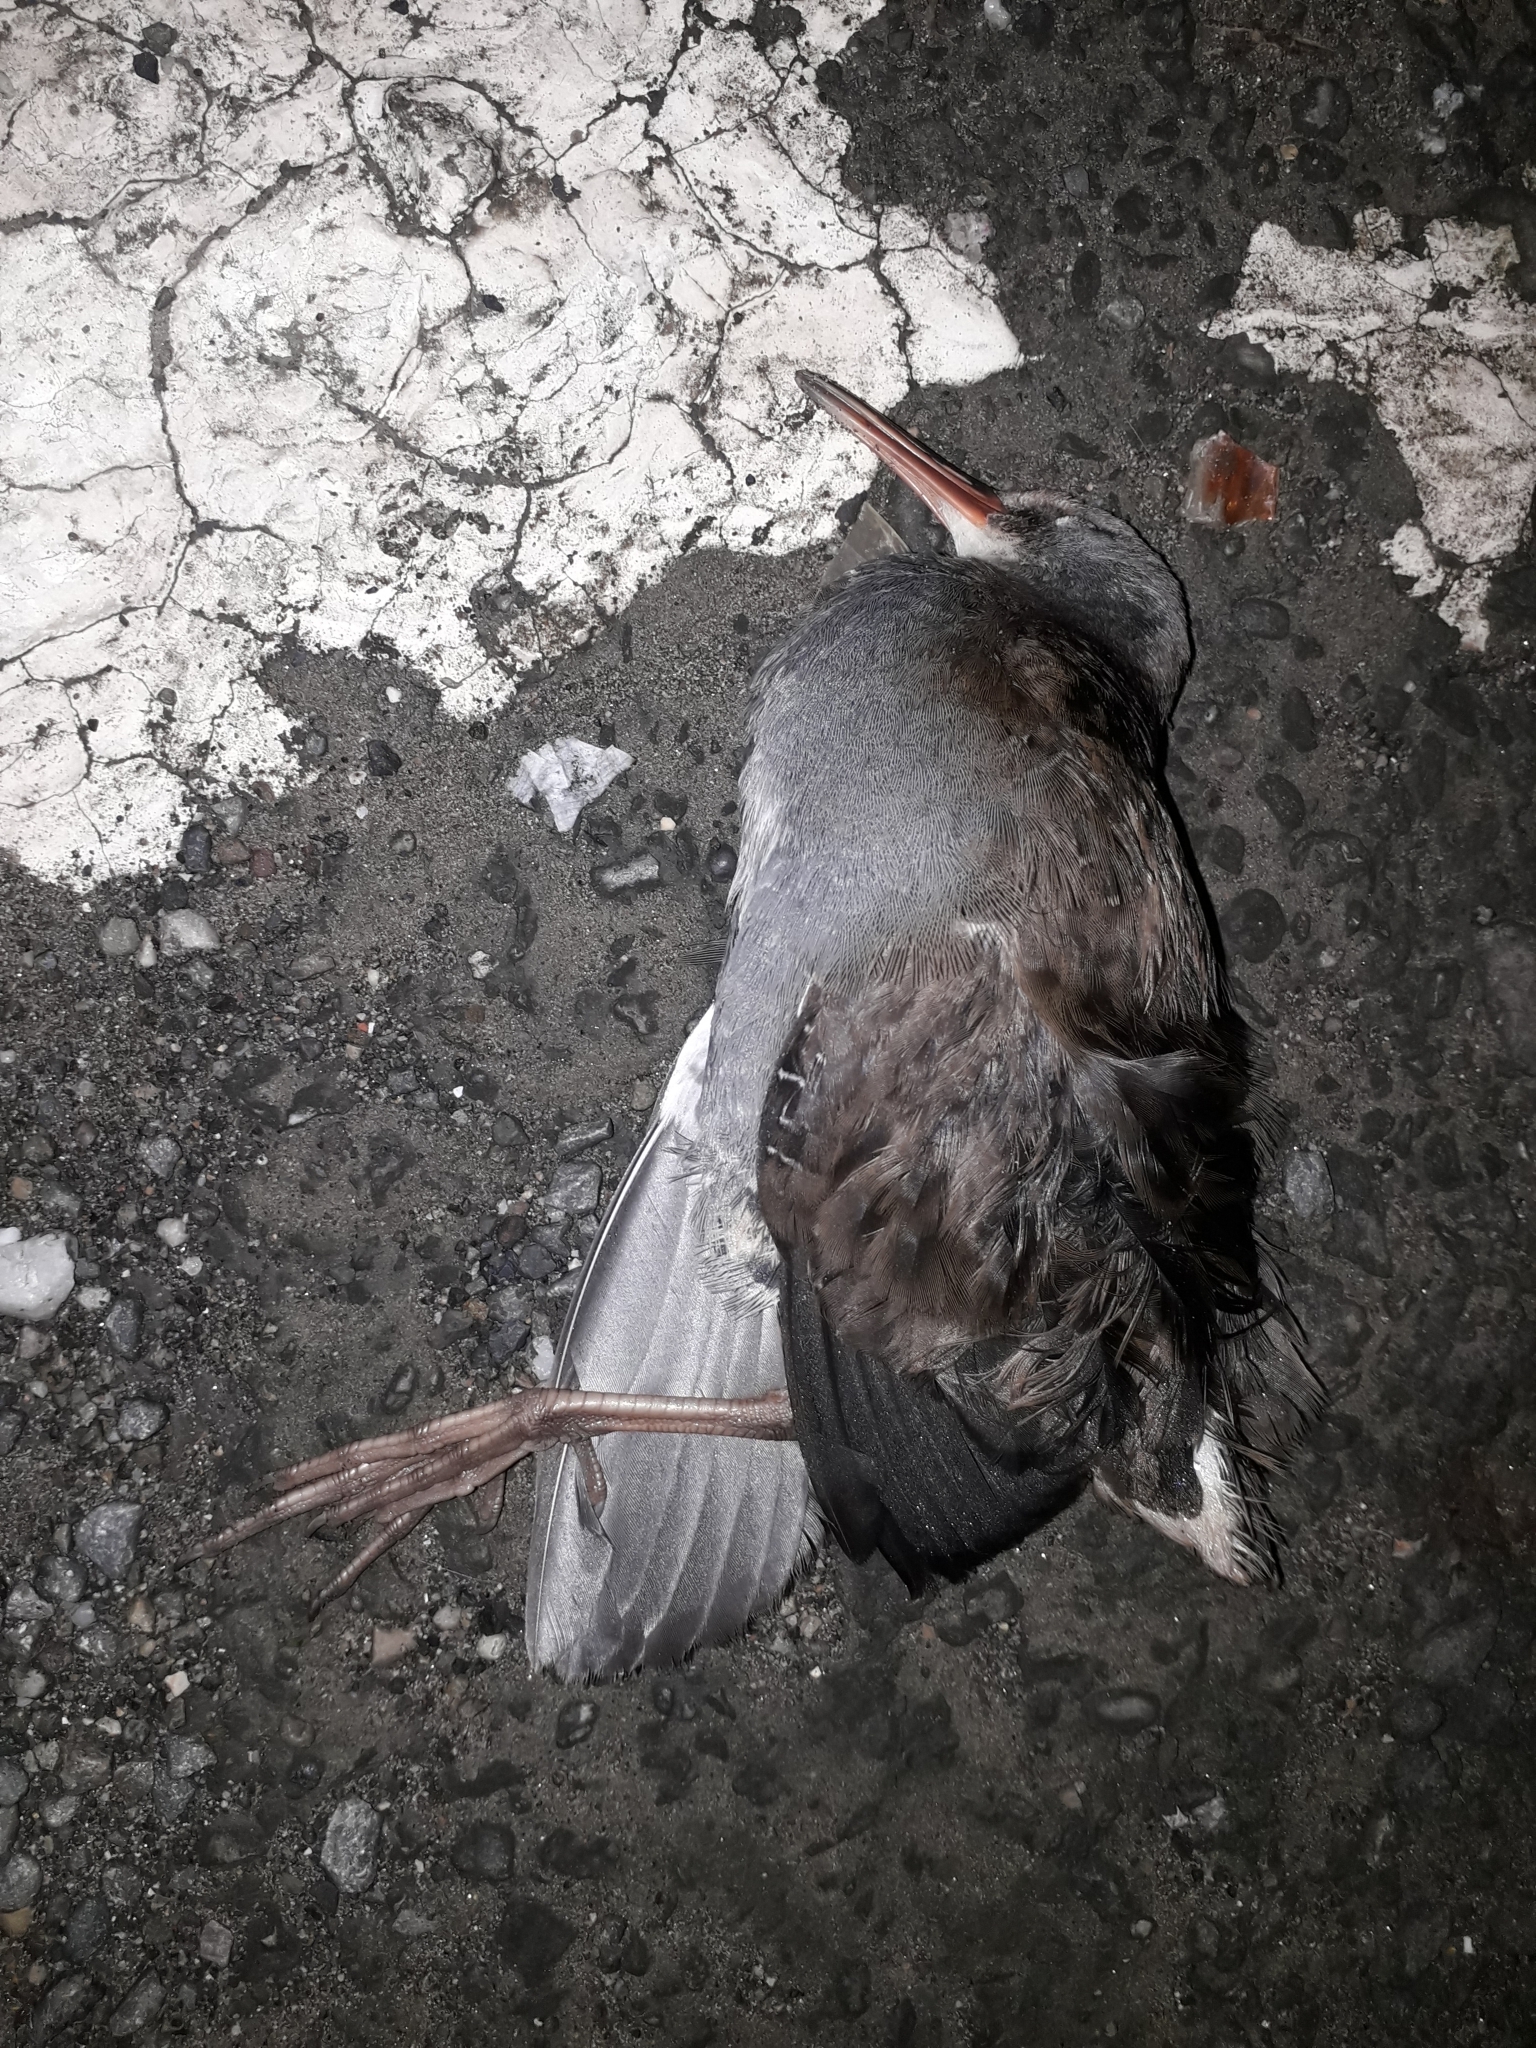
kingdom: Animalia
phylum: Chordata
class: Aves
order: Gruiformes
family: Rallidae
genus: Rallus
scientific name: Rallus aquaticus
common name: Water rail
